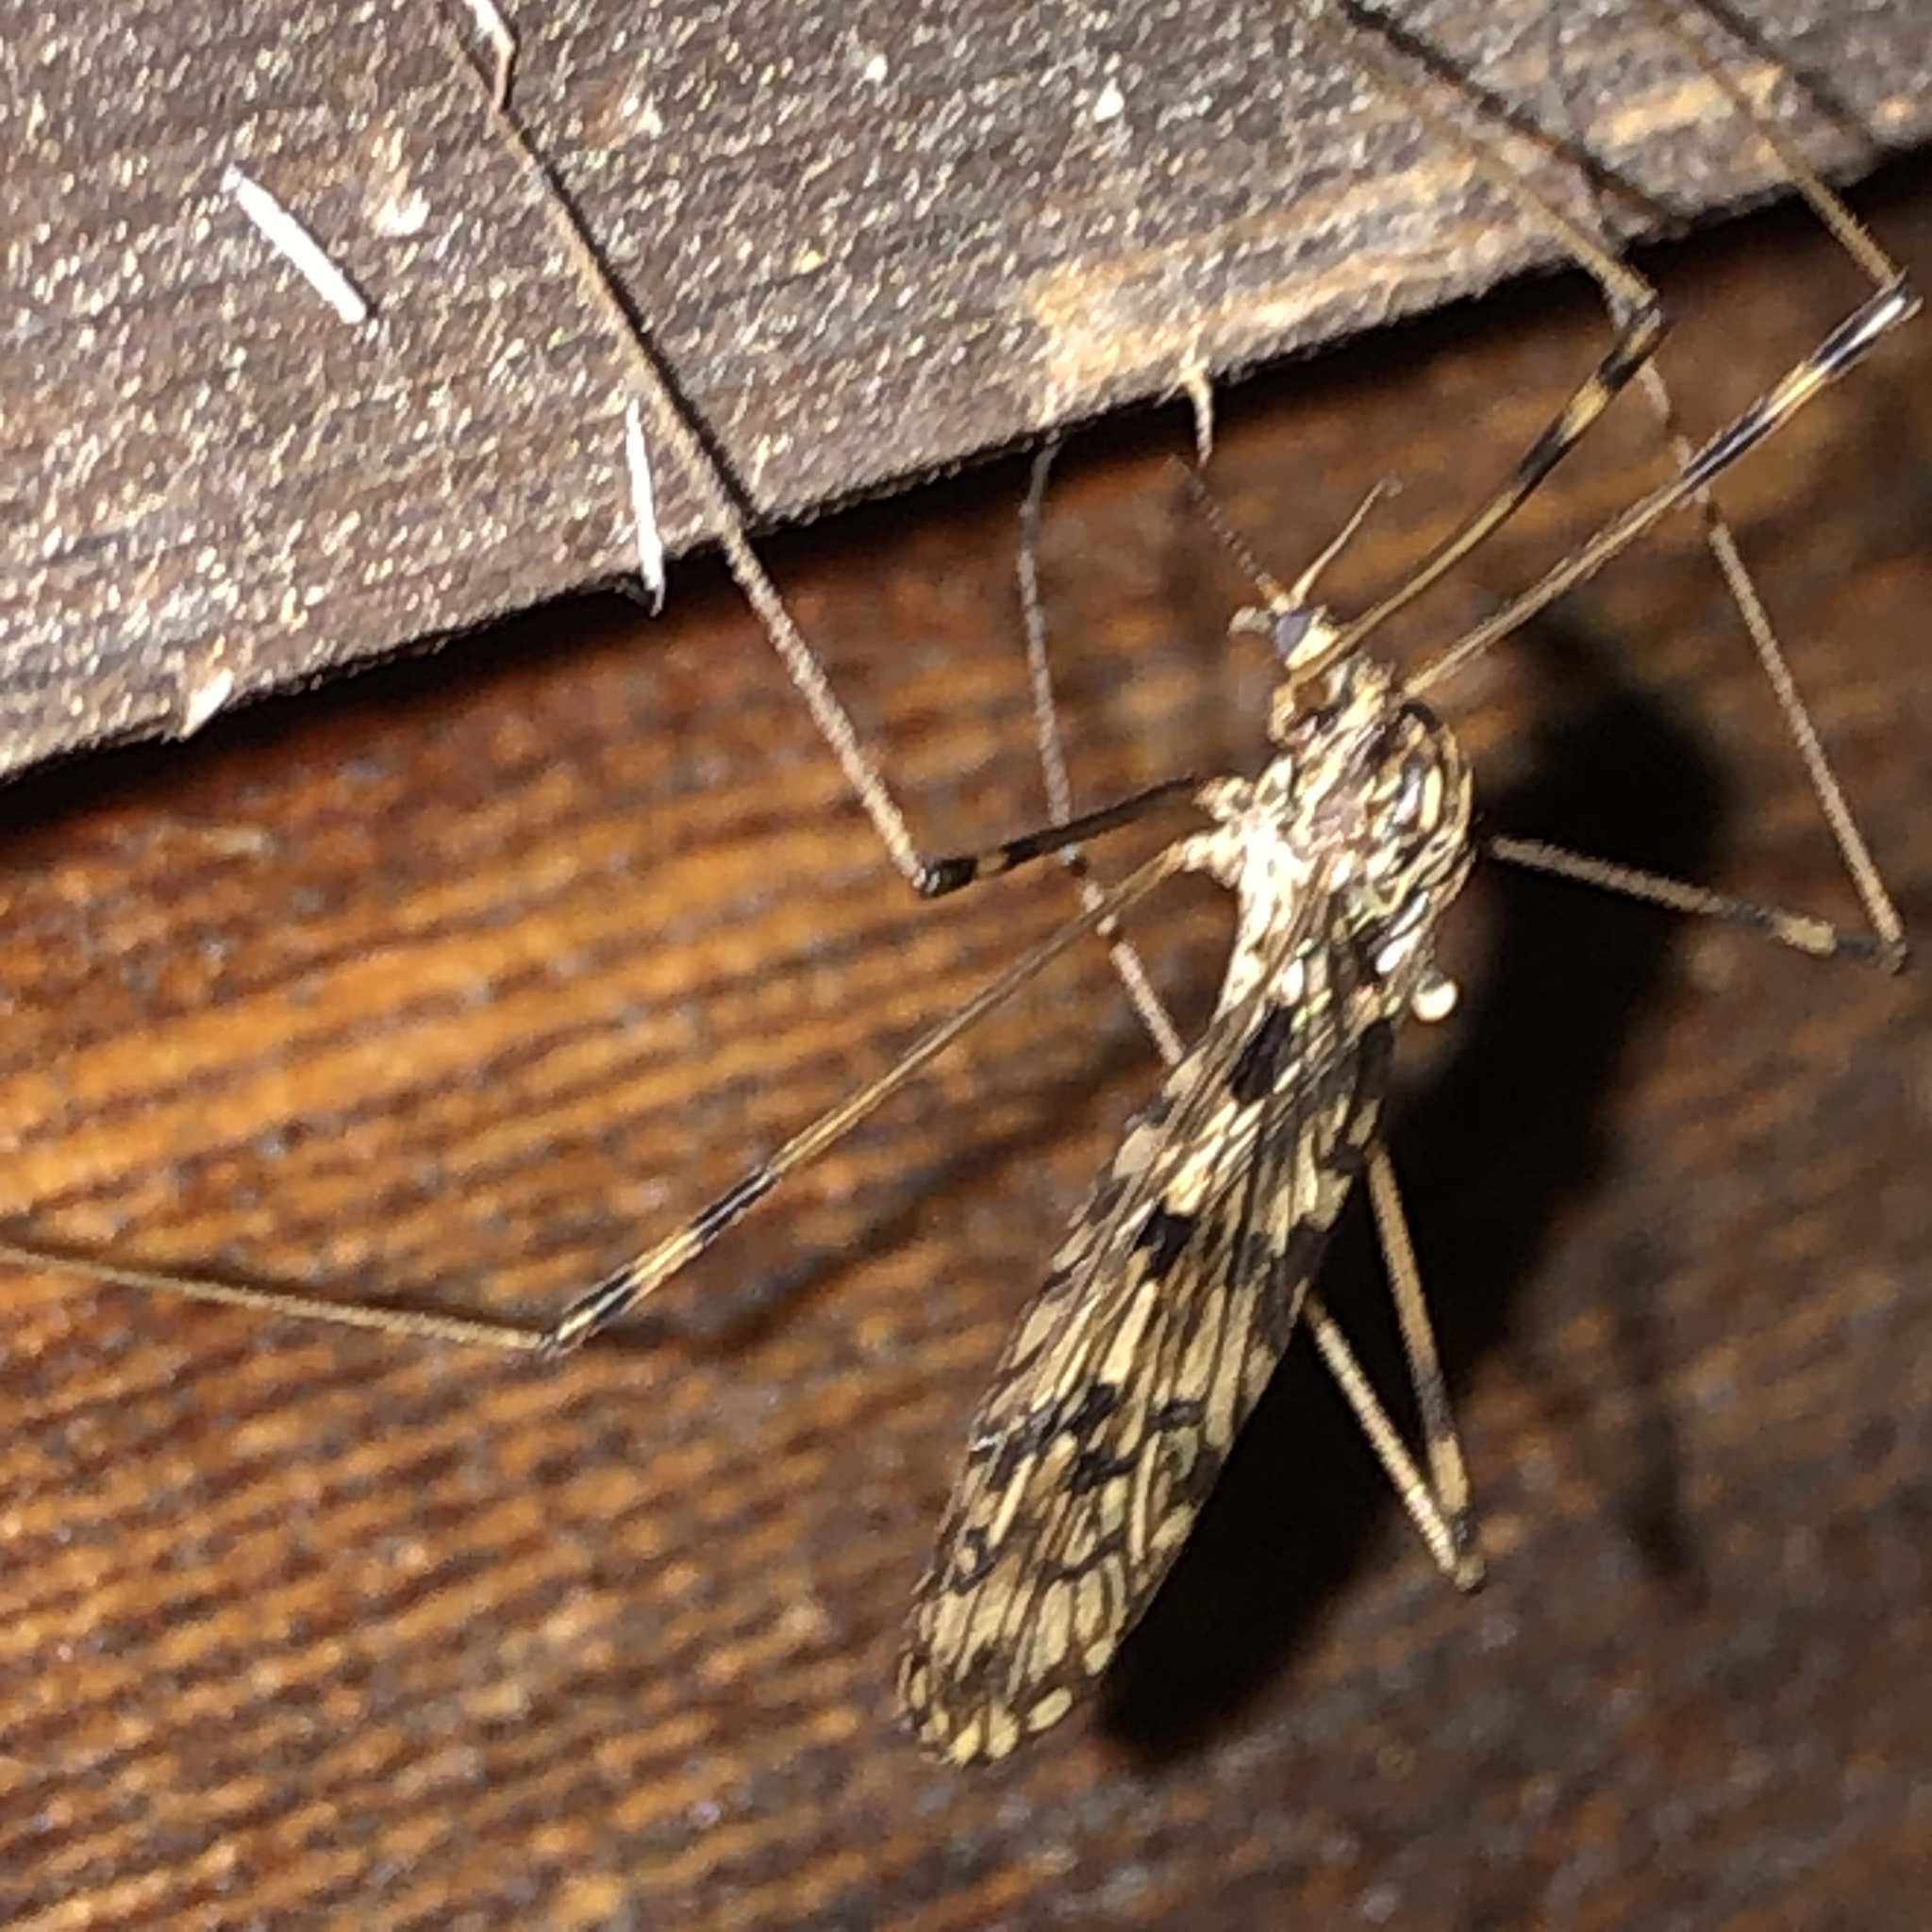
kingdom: Animalia
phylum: Arthropoda
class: Insecta
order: Diptera
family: Limoniidae
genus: Limonia
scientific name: Limonia cinctipes
